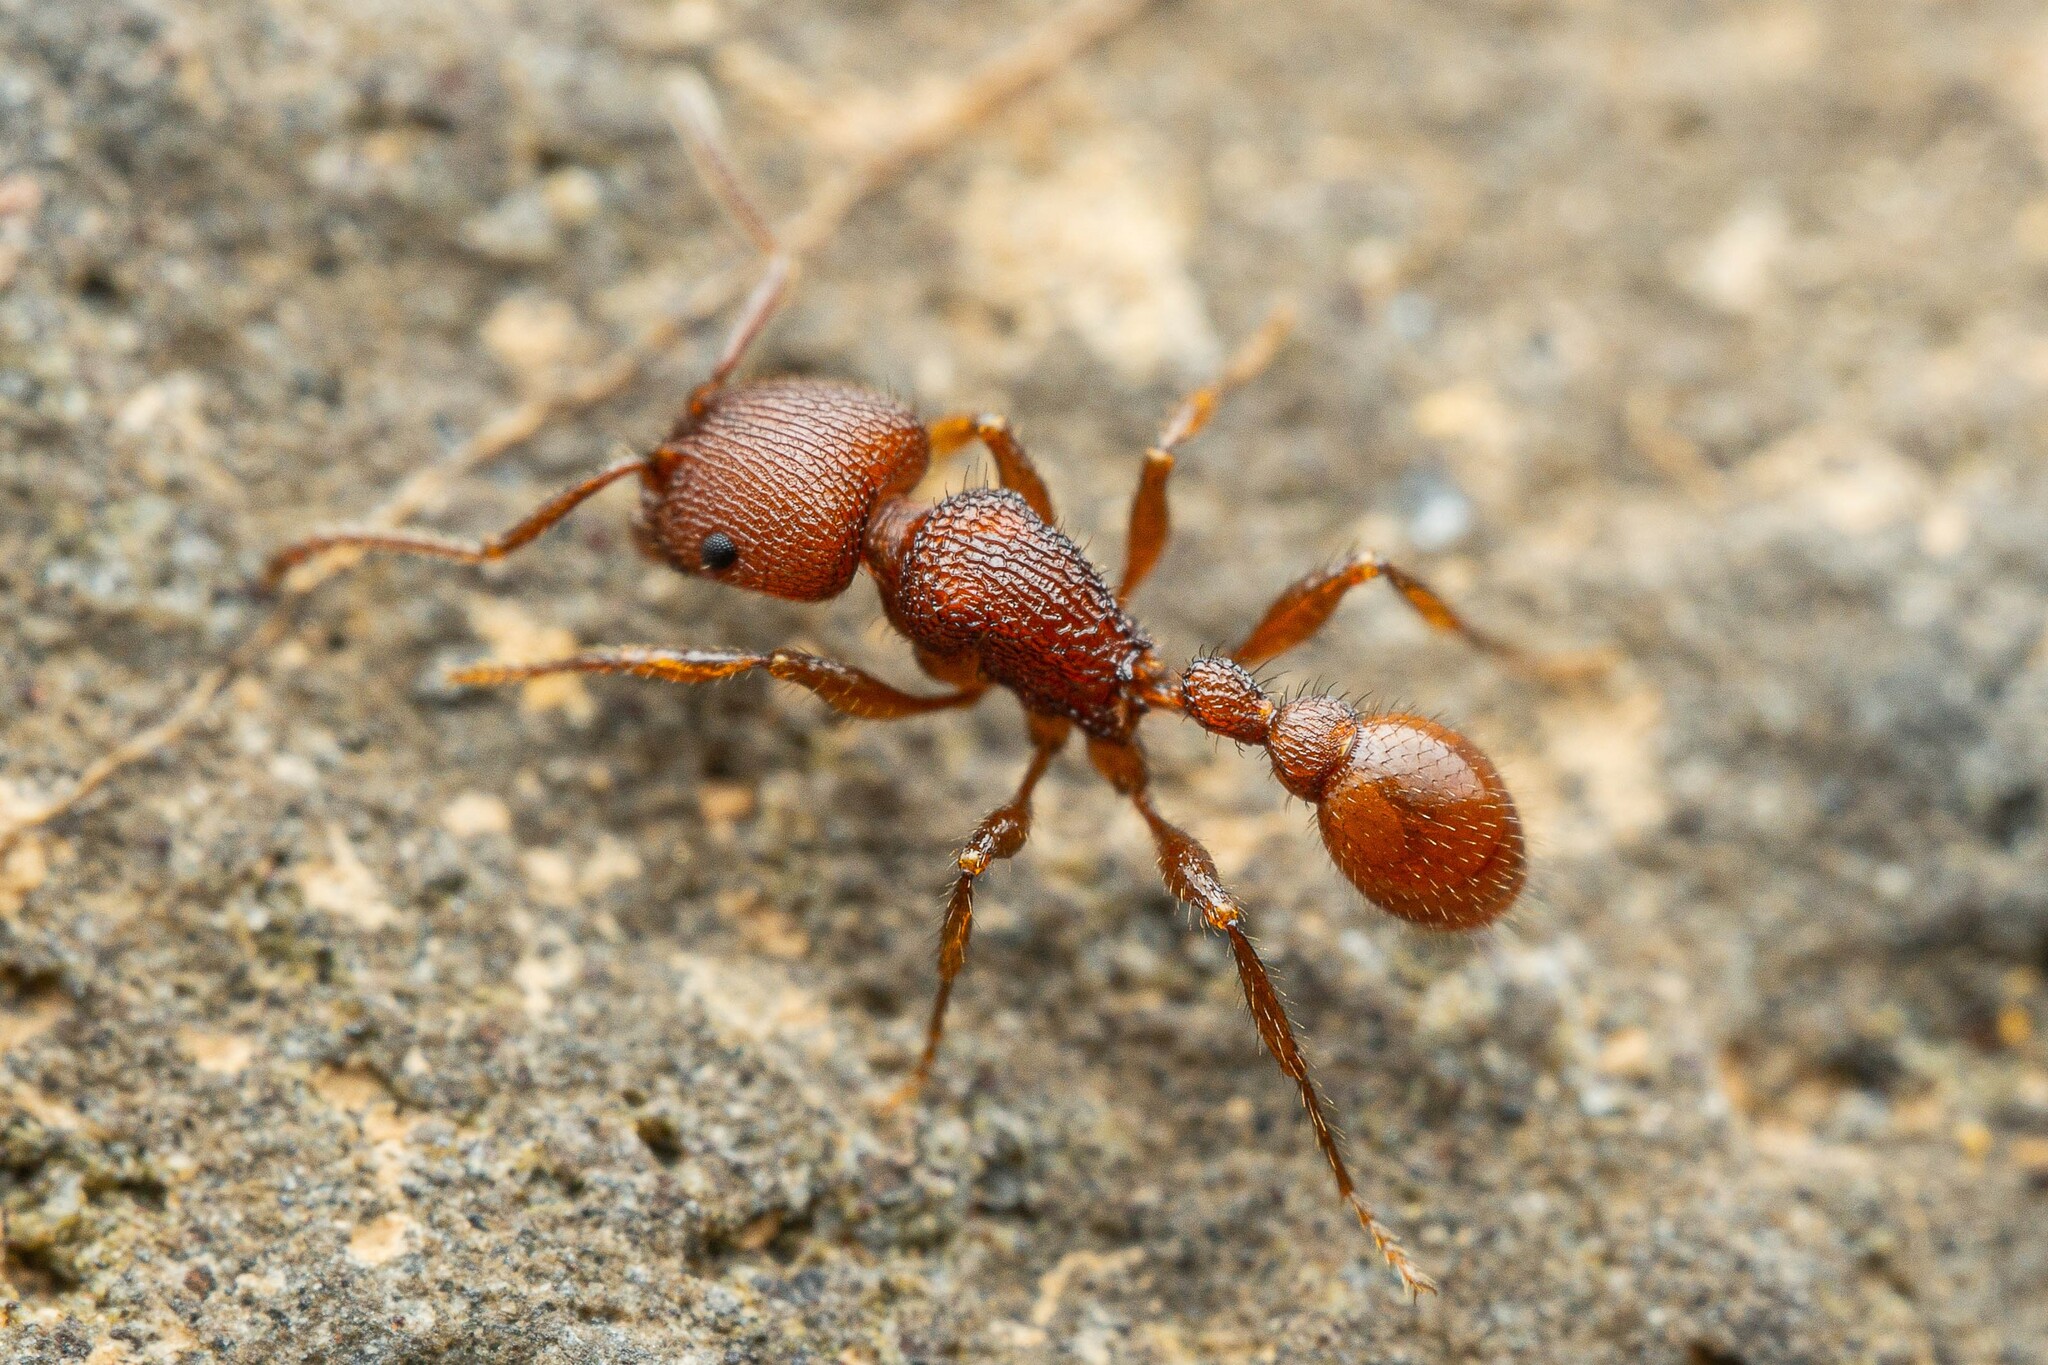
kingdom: Animalia
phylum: Arthropoda
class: Insecta
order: Hymenoptera
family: Formicidae
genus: Pogonomyrmex
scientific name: Pogonomyrmex imberbiculus
